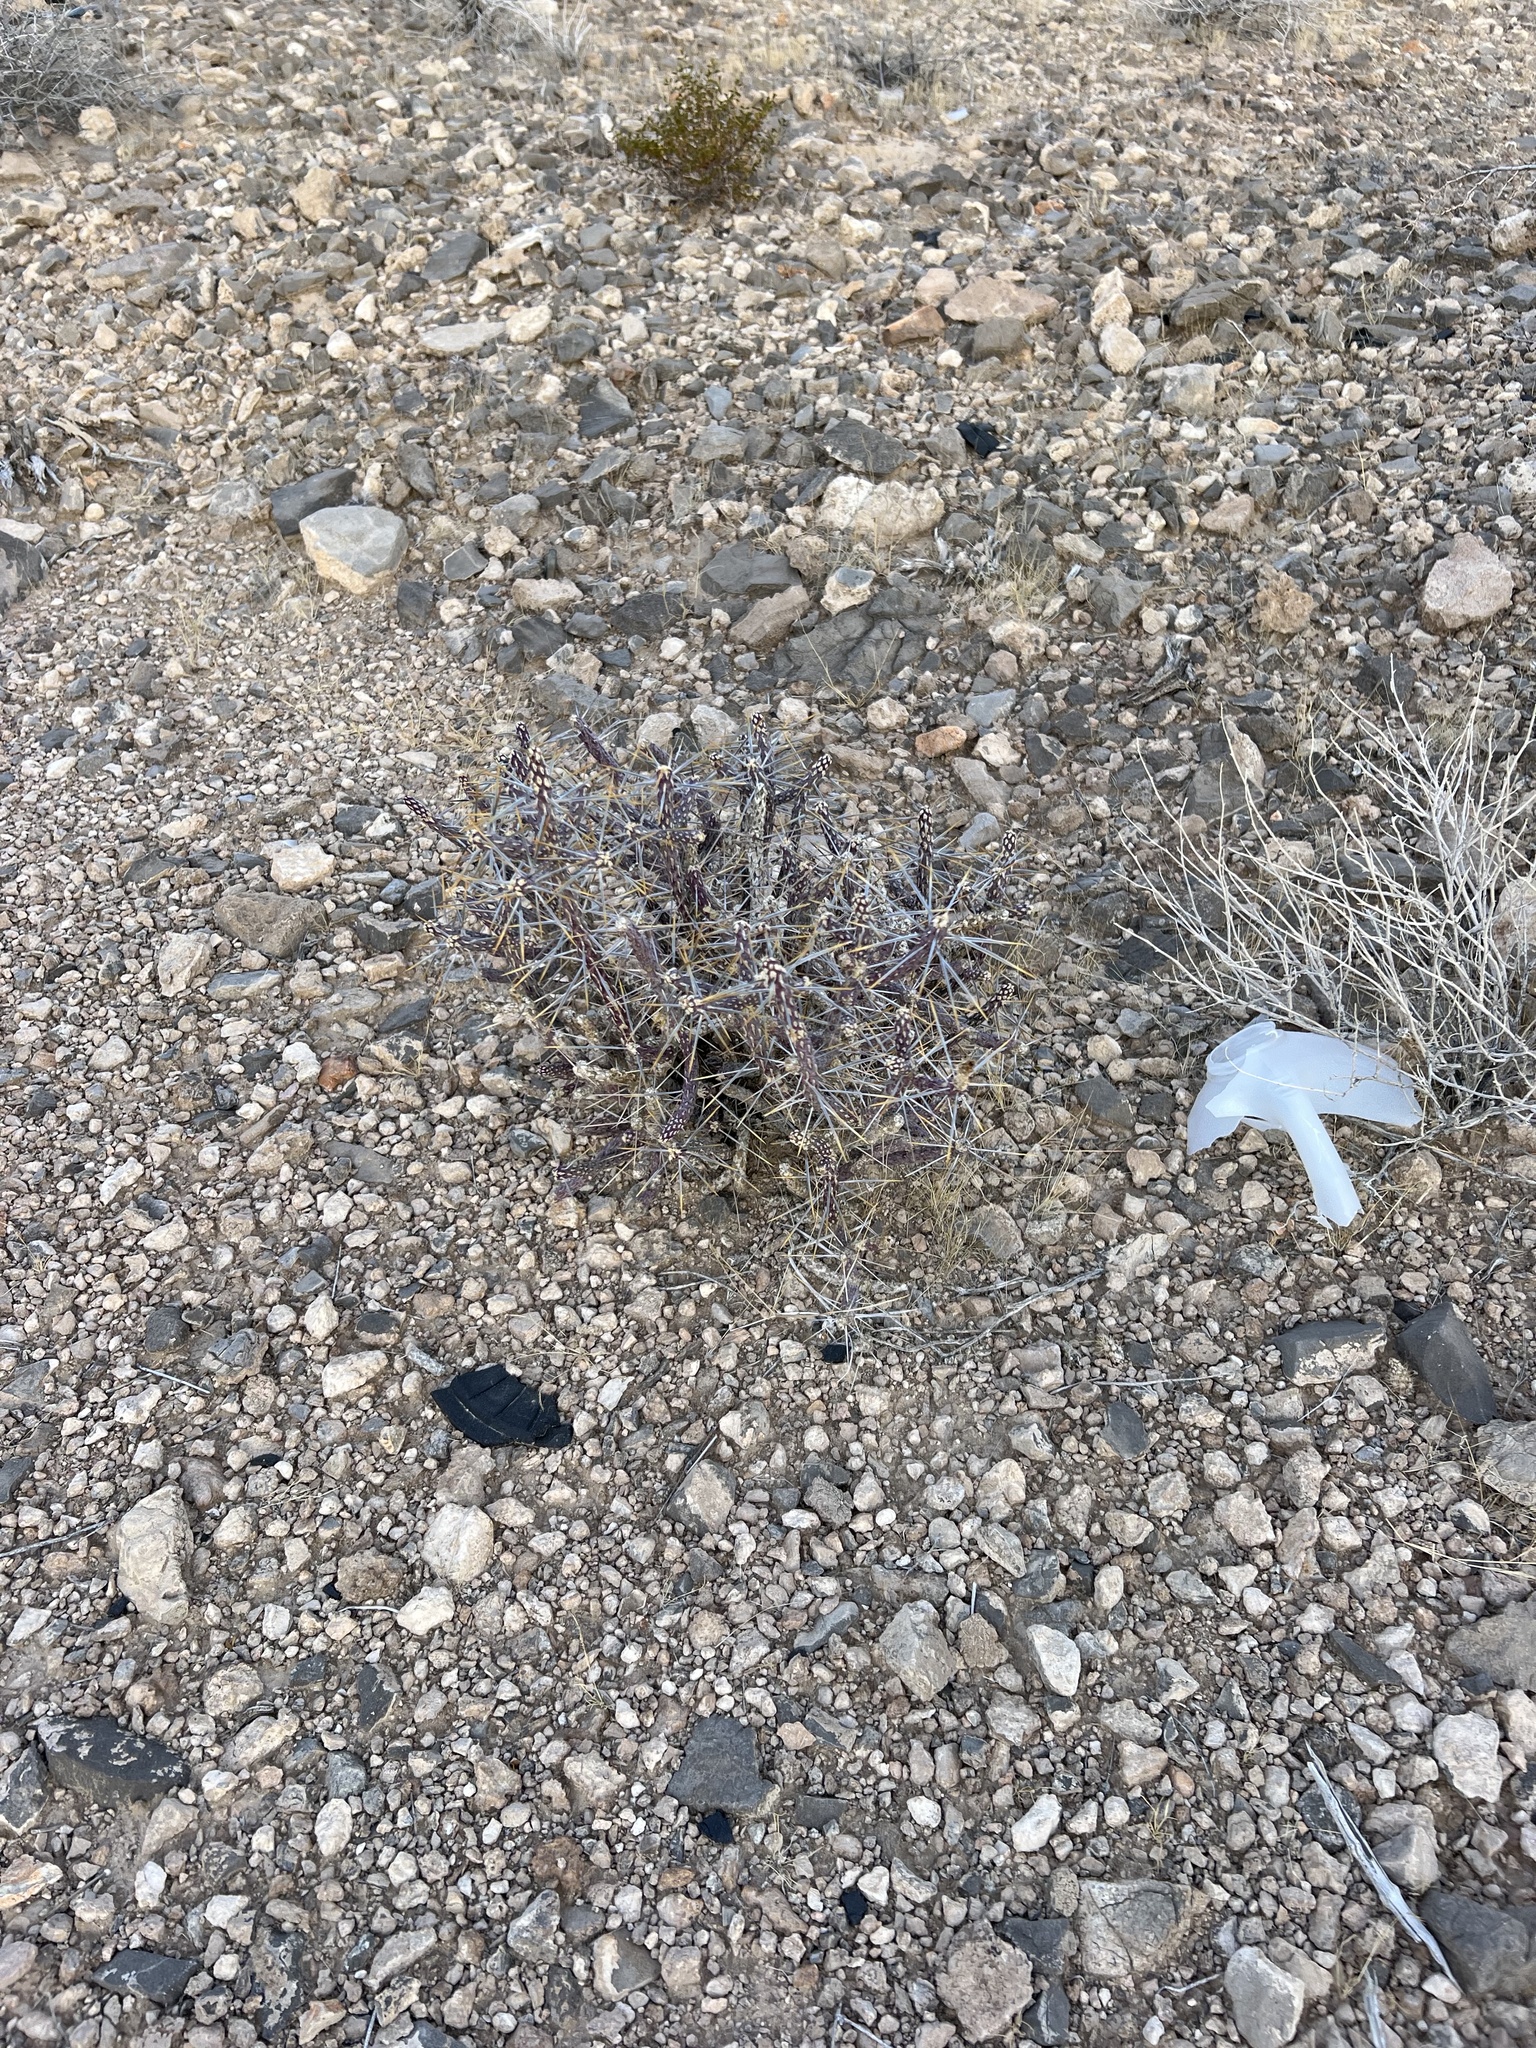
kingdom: Plantae
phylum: Tracheophyta
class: Magnoliopsida
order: Caryophyllales
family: Cactaceae
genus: Cylindropuntia
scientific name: Cylindropuntia ramosissima
